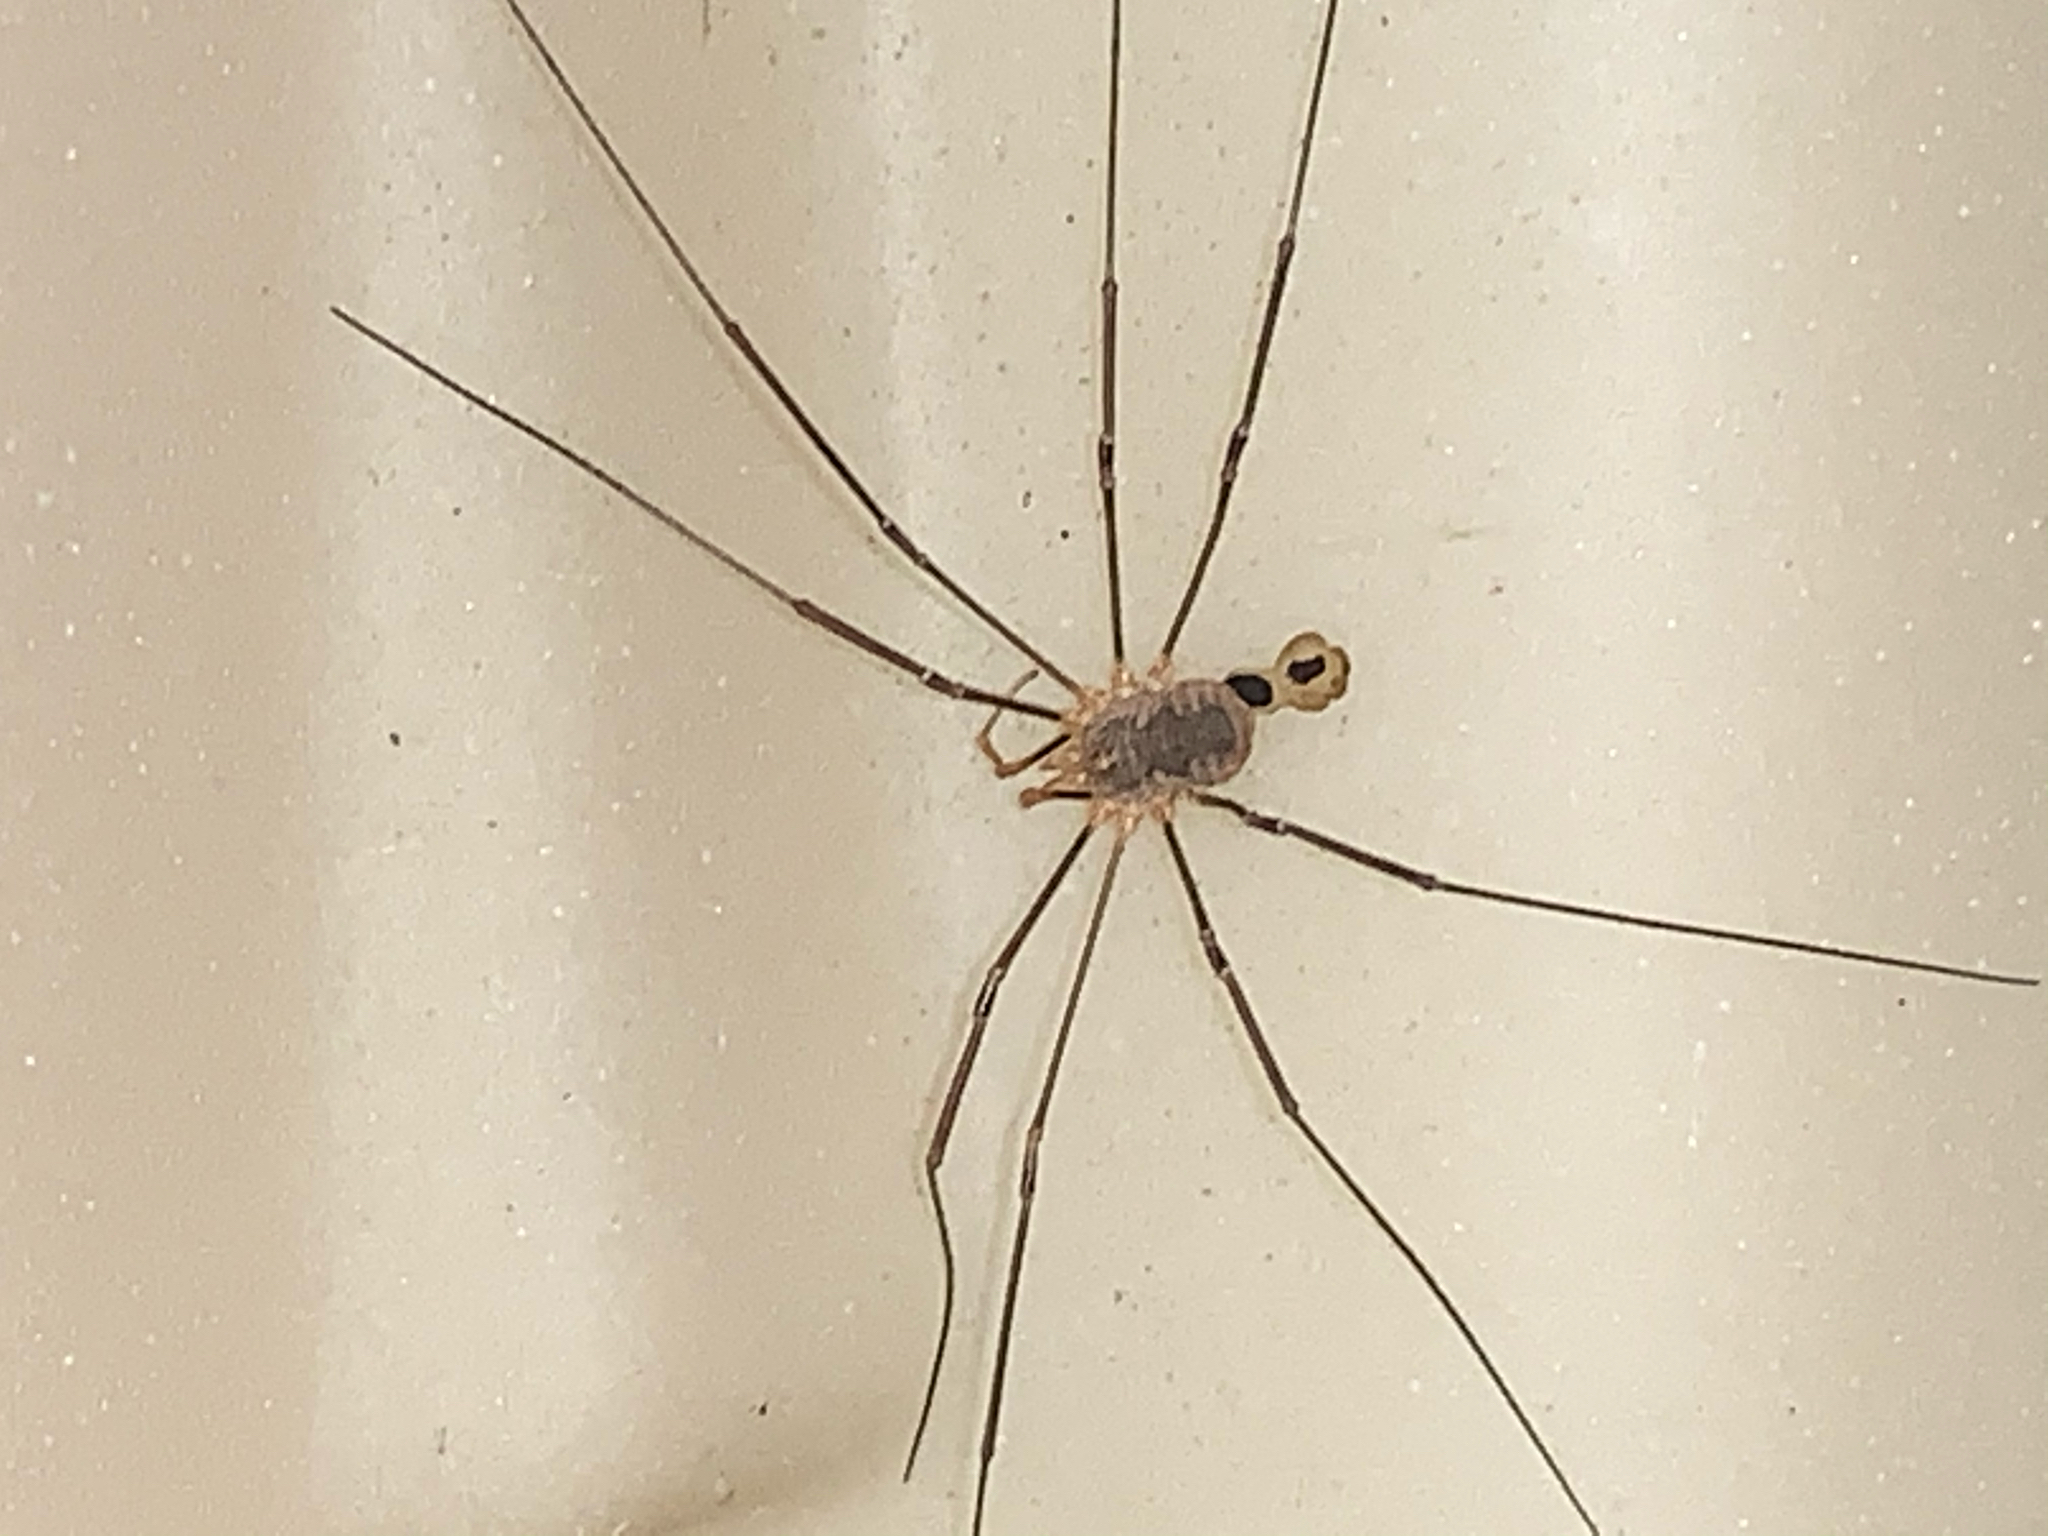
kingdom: Animalia
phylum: Arthropoda
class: Arachnida
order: Opiliones
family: Phalangiidae
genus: Phalangium
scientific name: Phalangium opilio
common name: Daddy longleg
